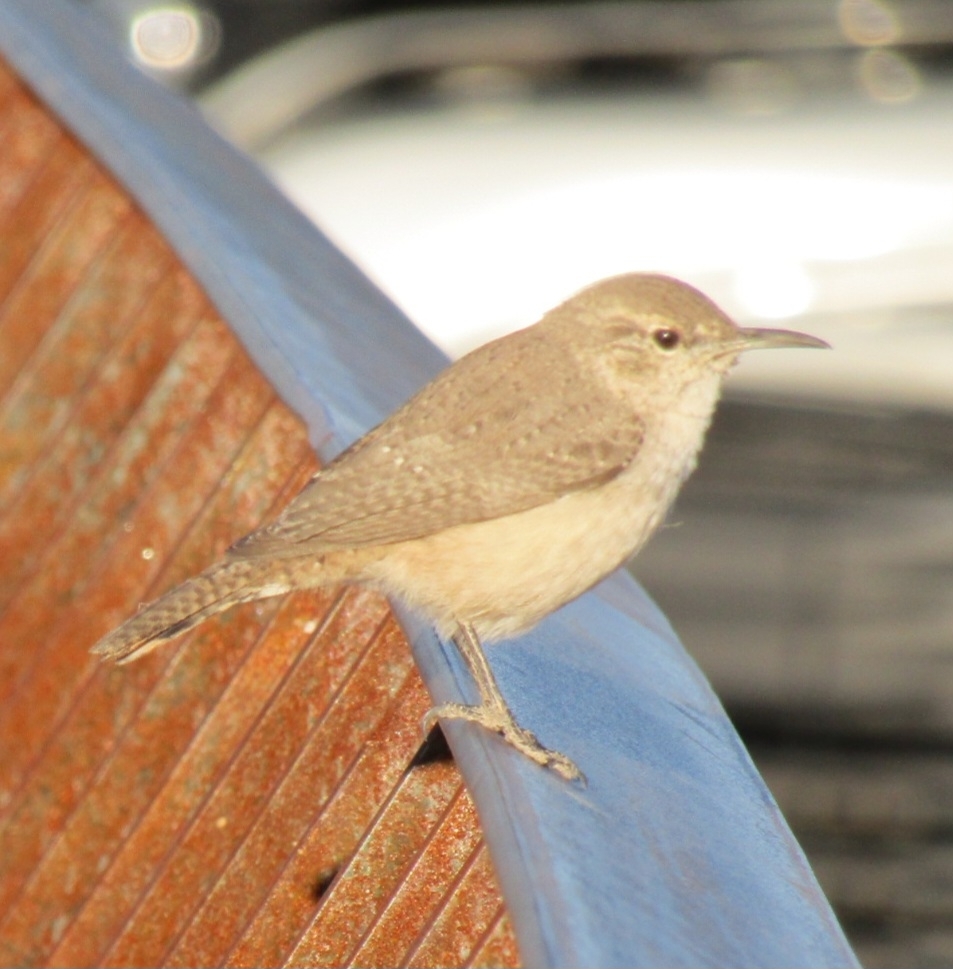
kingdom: Animalia
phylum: Chordata
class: Aves
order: Passeriformes
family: Troglodytidae
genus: Salpinctes
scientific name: Salpinctes obsoletus
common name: Rock wren
